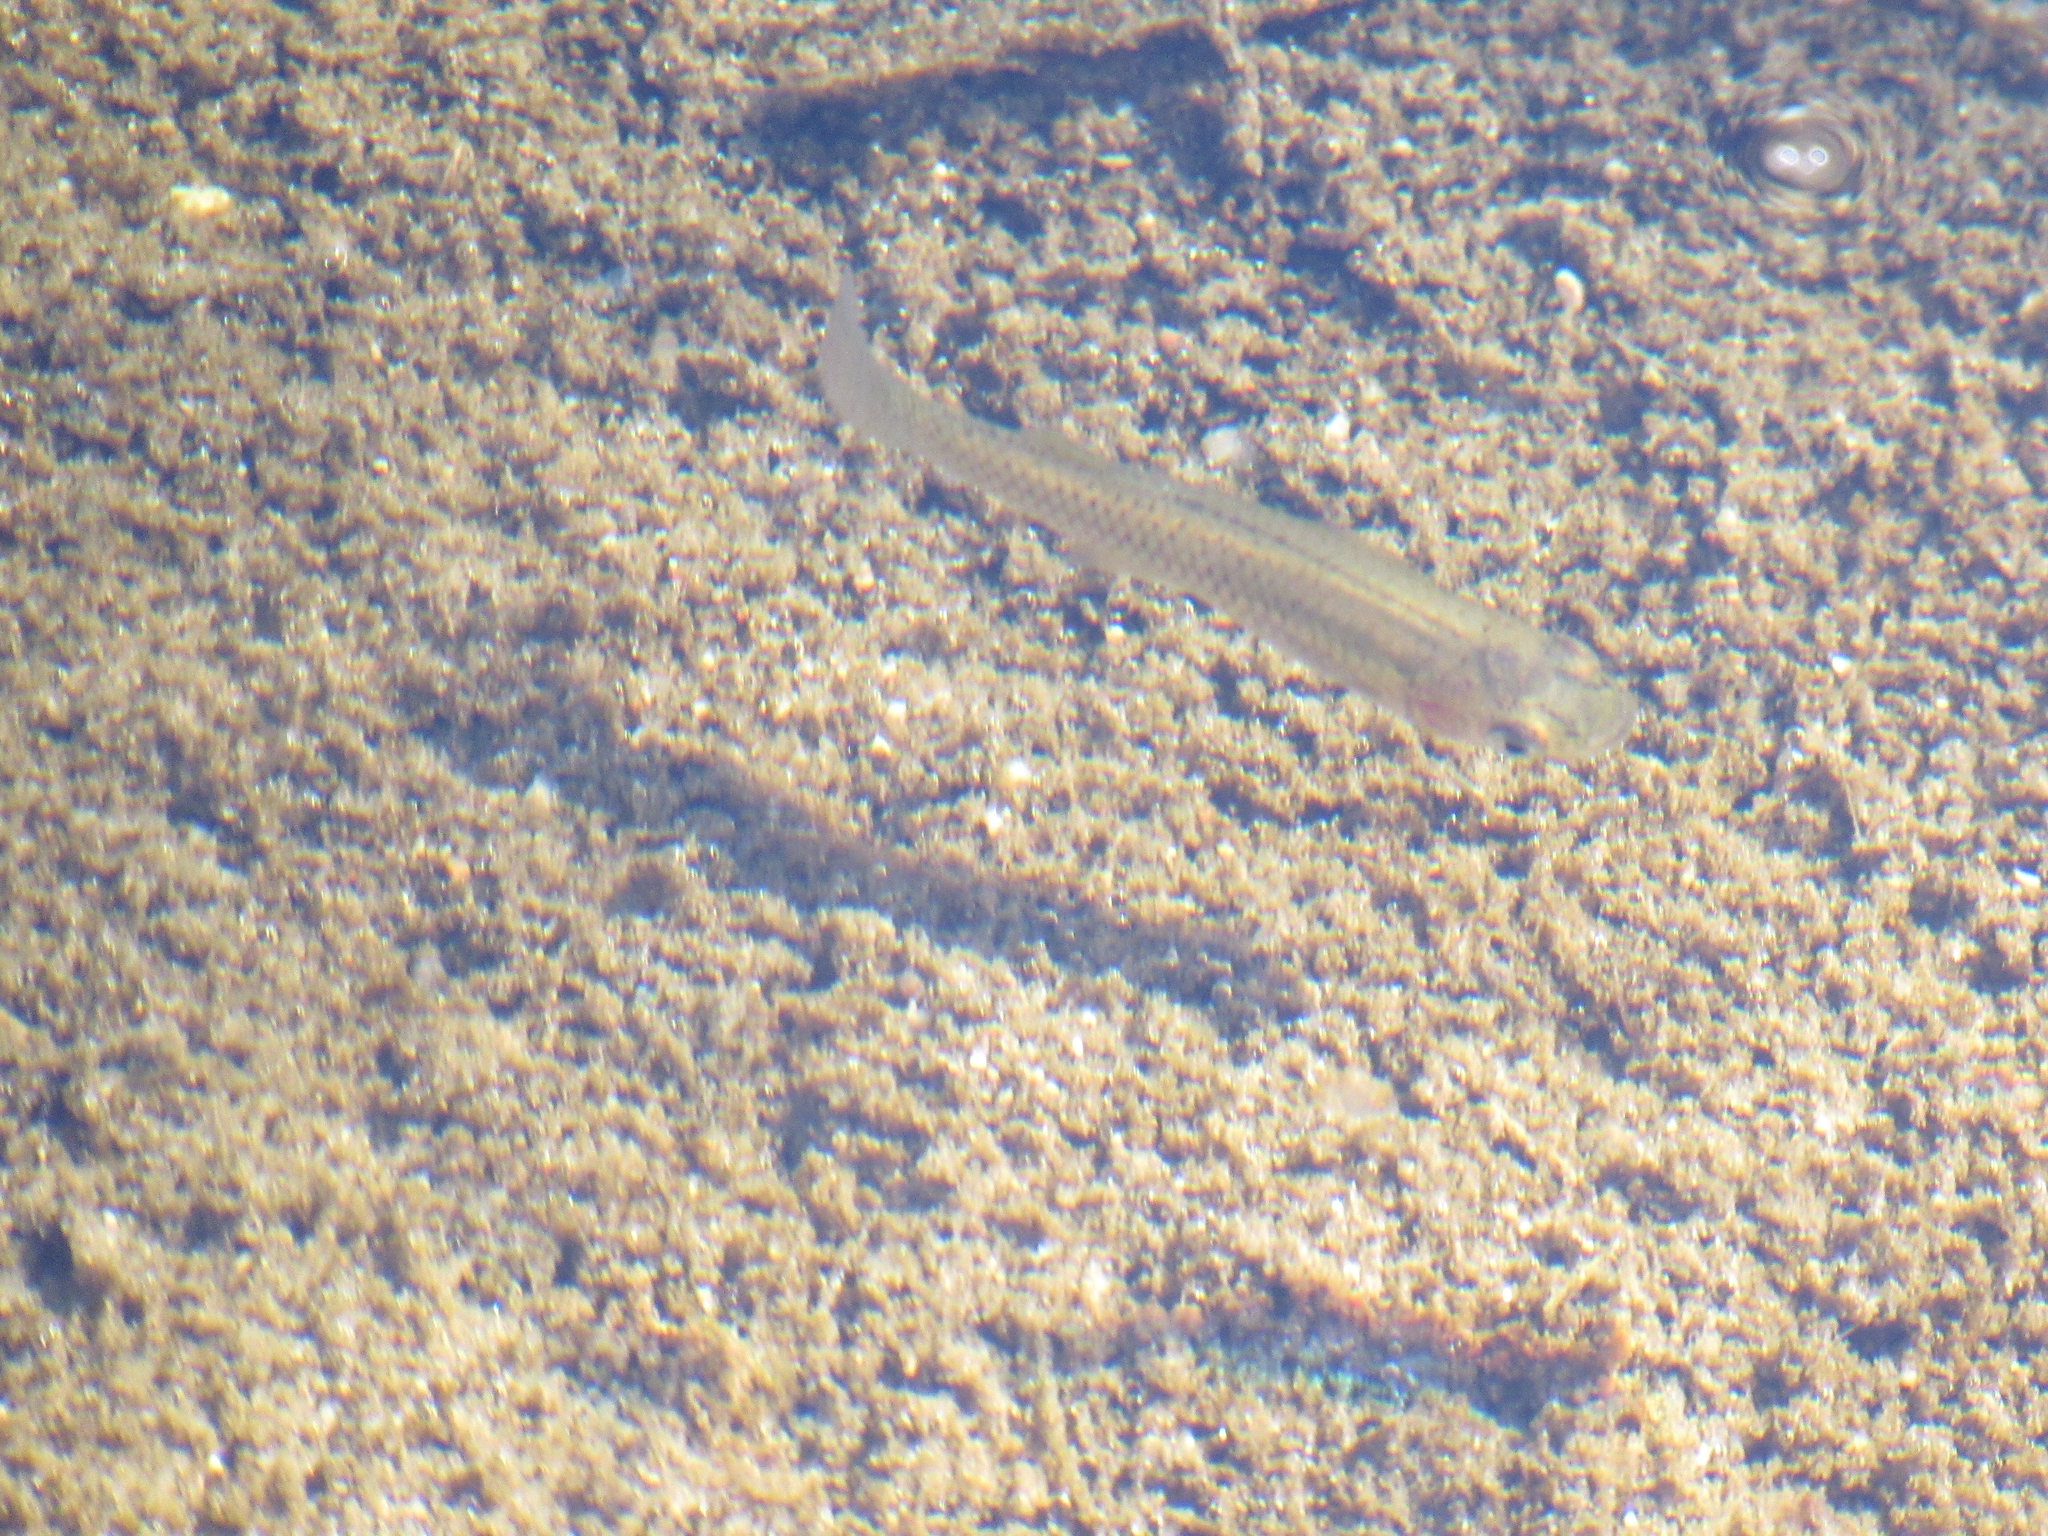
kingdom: Animalia
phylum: Chordata
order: Cyprinodontiformes
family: Poeciliidae
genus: Gambusia
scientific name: Gambusia affinis
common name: Mosquitofish
